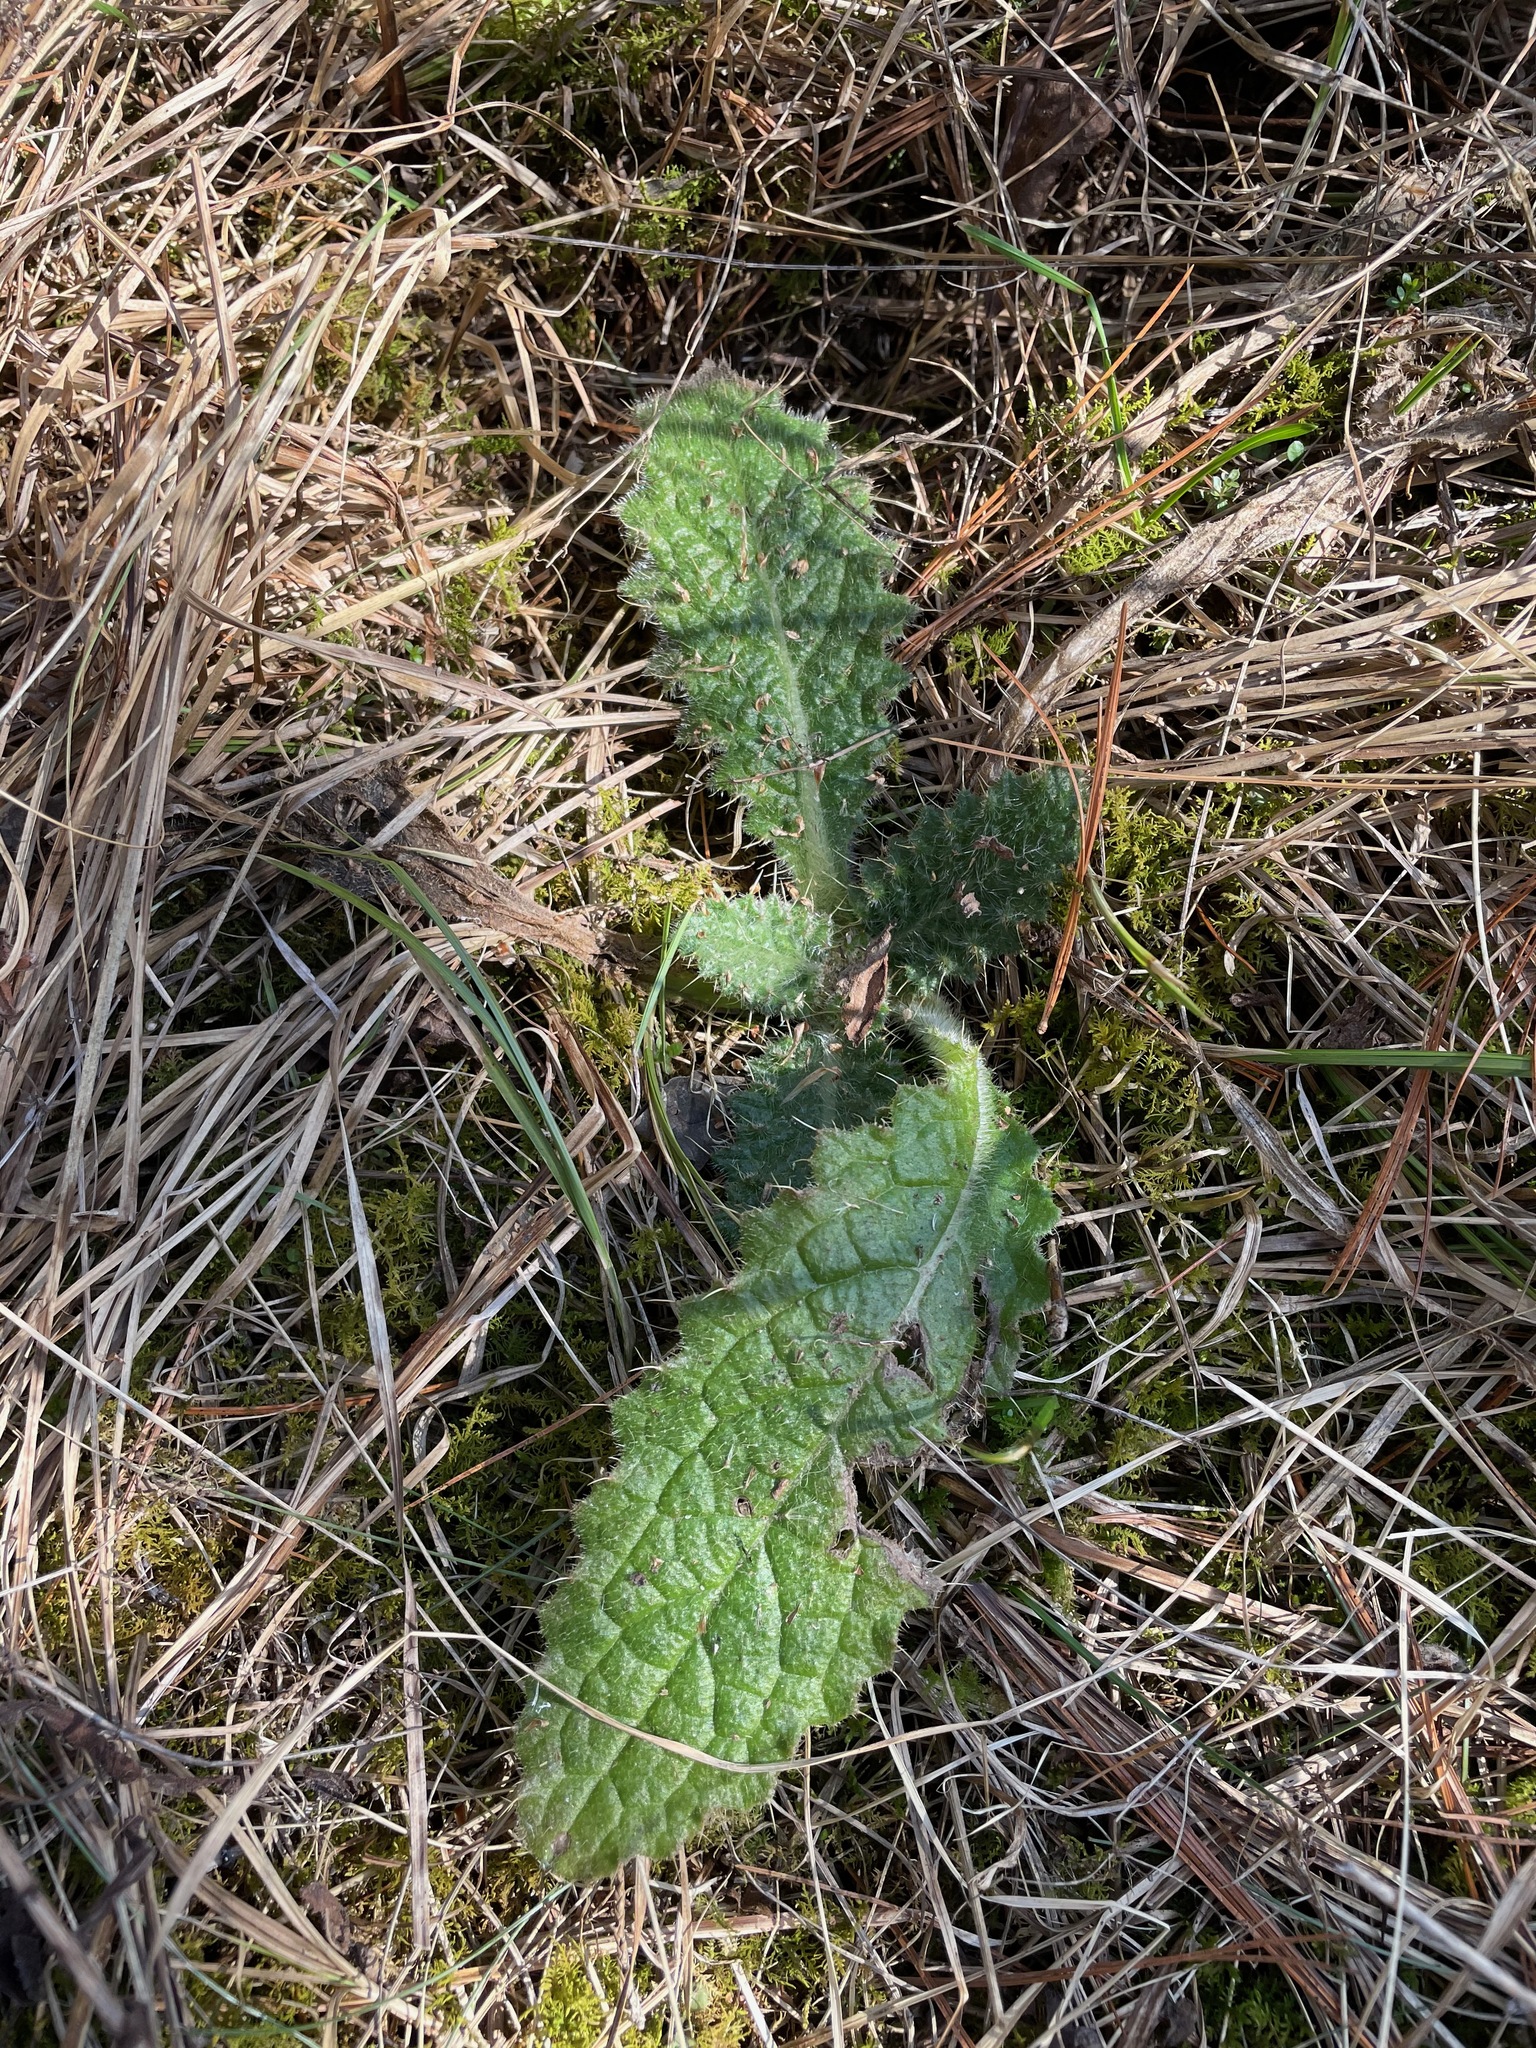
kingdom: Plantae
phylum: Tracheophyta
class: Magnoliopsida
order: Asterales
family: Asteraceae
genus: Cirsium
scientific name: Cirsium vulgare
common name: Bull thistle
